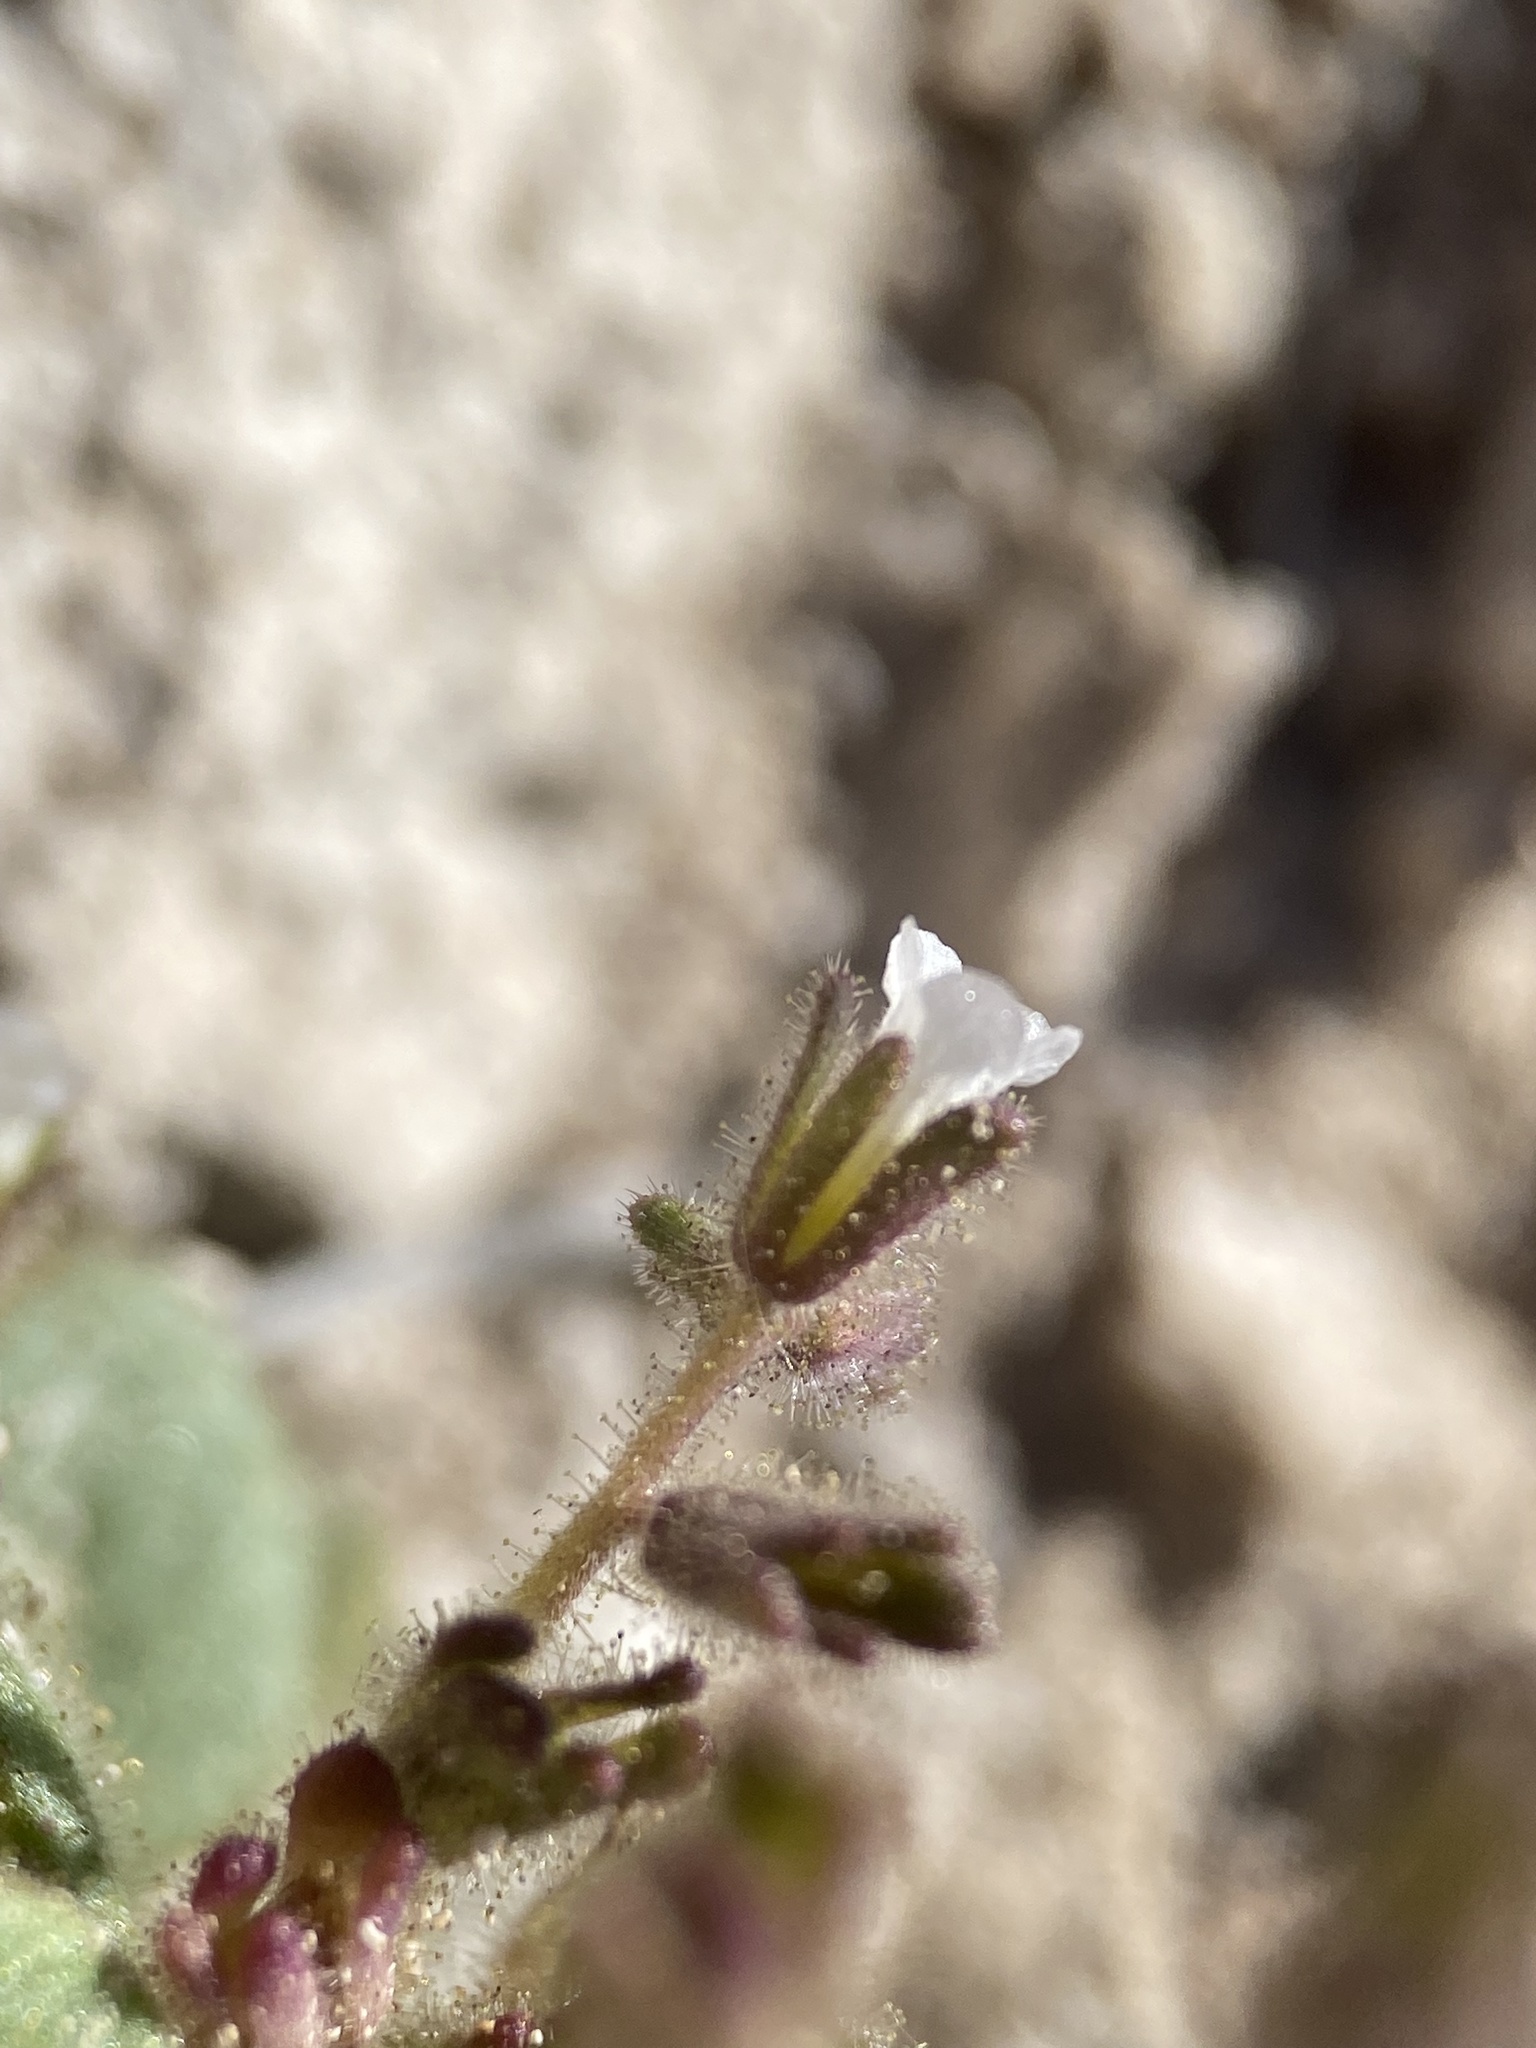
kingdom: Plantae
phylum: Tracheophyta
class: Magnoliopsida
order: Boraginales
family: Hydrophyllaceae
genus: Phacelia
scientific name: Phacelia incana
